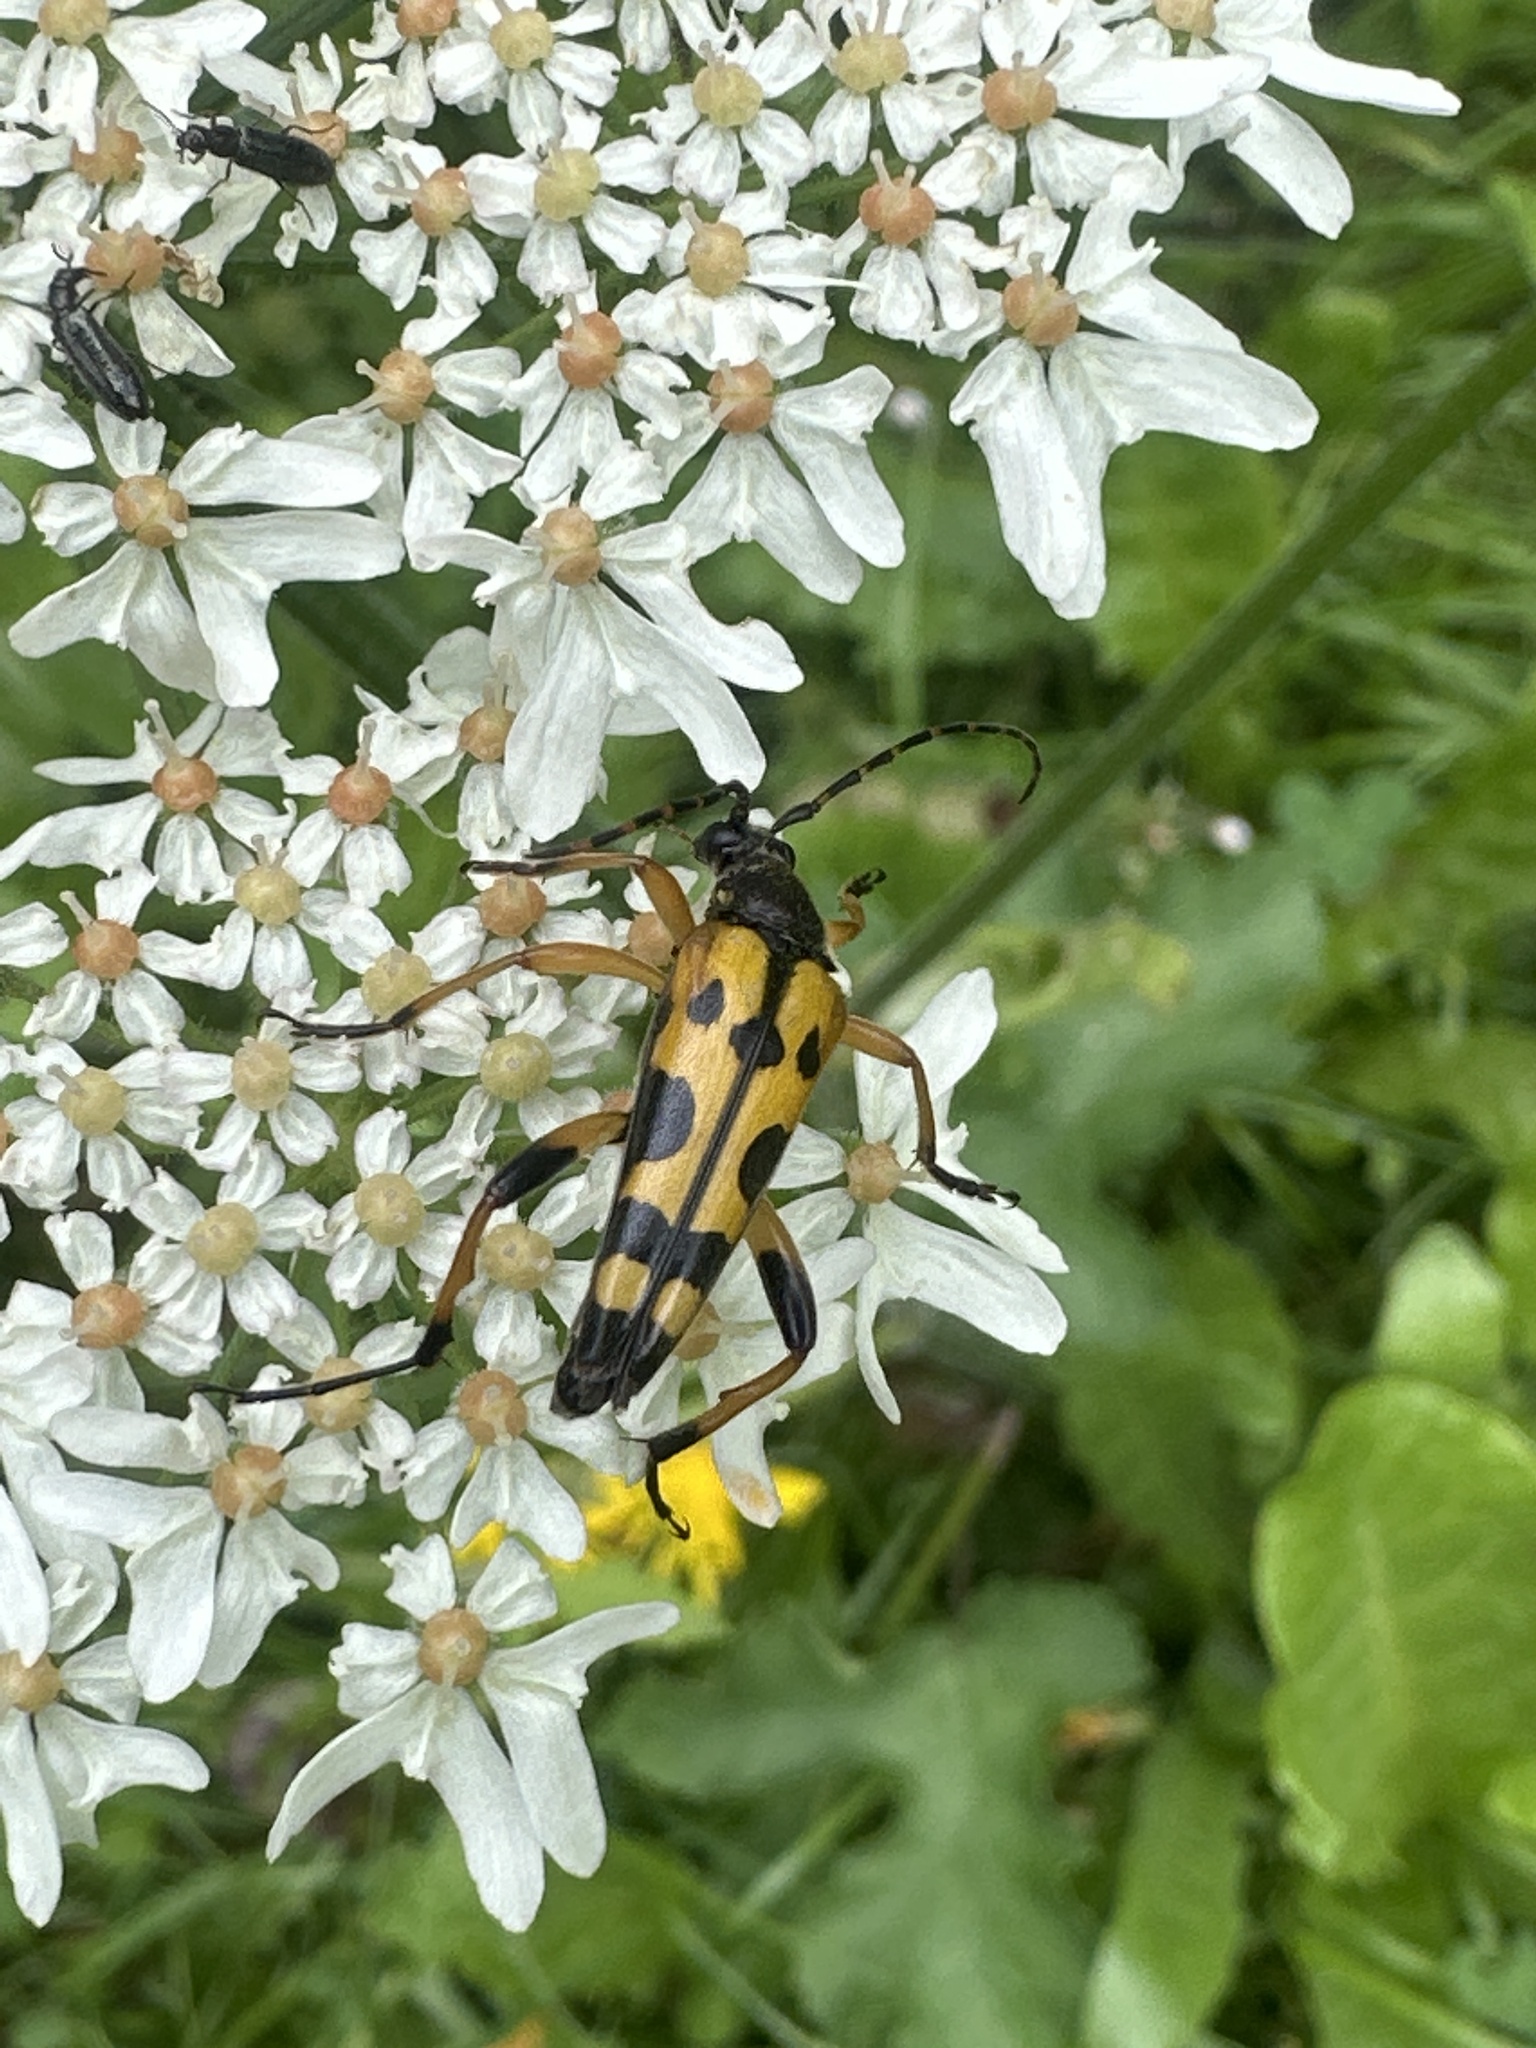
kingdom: Animalia
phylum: Arthropoda
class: Insecta
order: Coleoptera
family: Cerambycidae
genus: Rutpela
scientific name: Rutpela maculata
